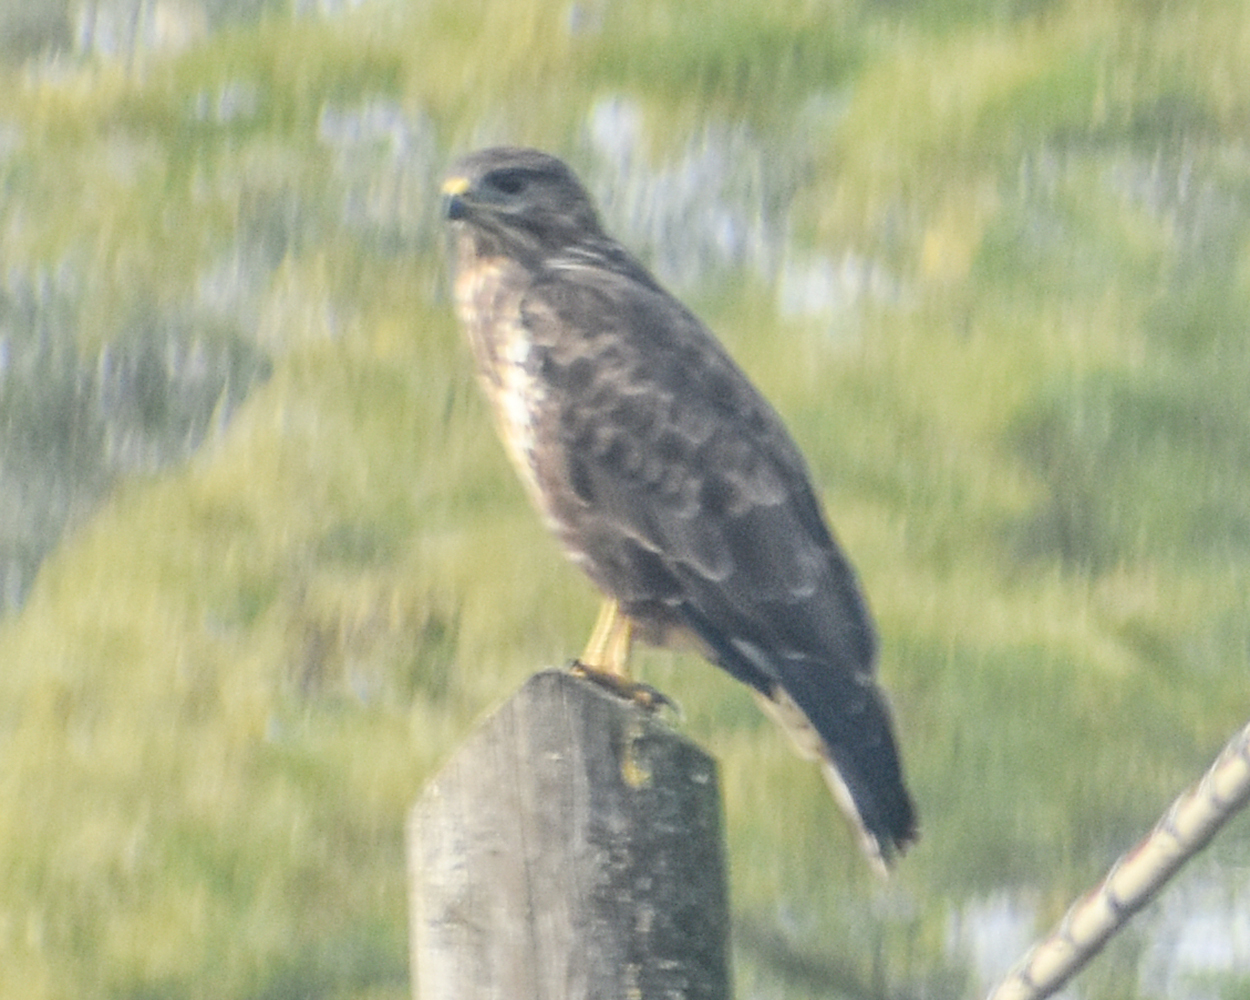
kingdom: Animalia
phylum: Chordata
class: Aves
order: Accipitriformes
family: Accipitridae
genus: Buteo
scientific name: Buteo buteo
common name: Common buzzard
